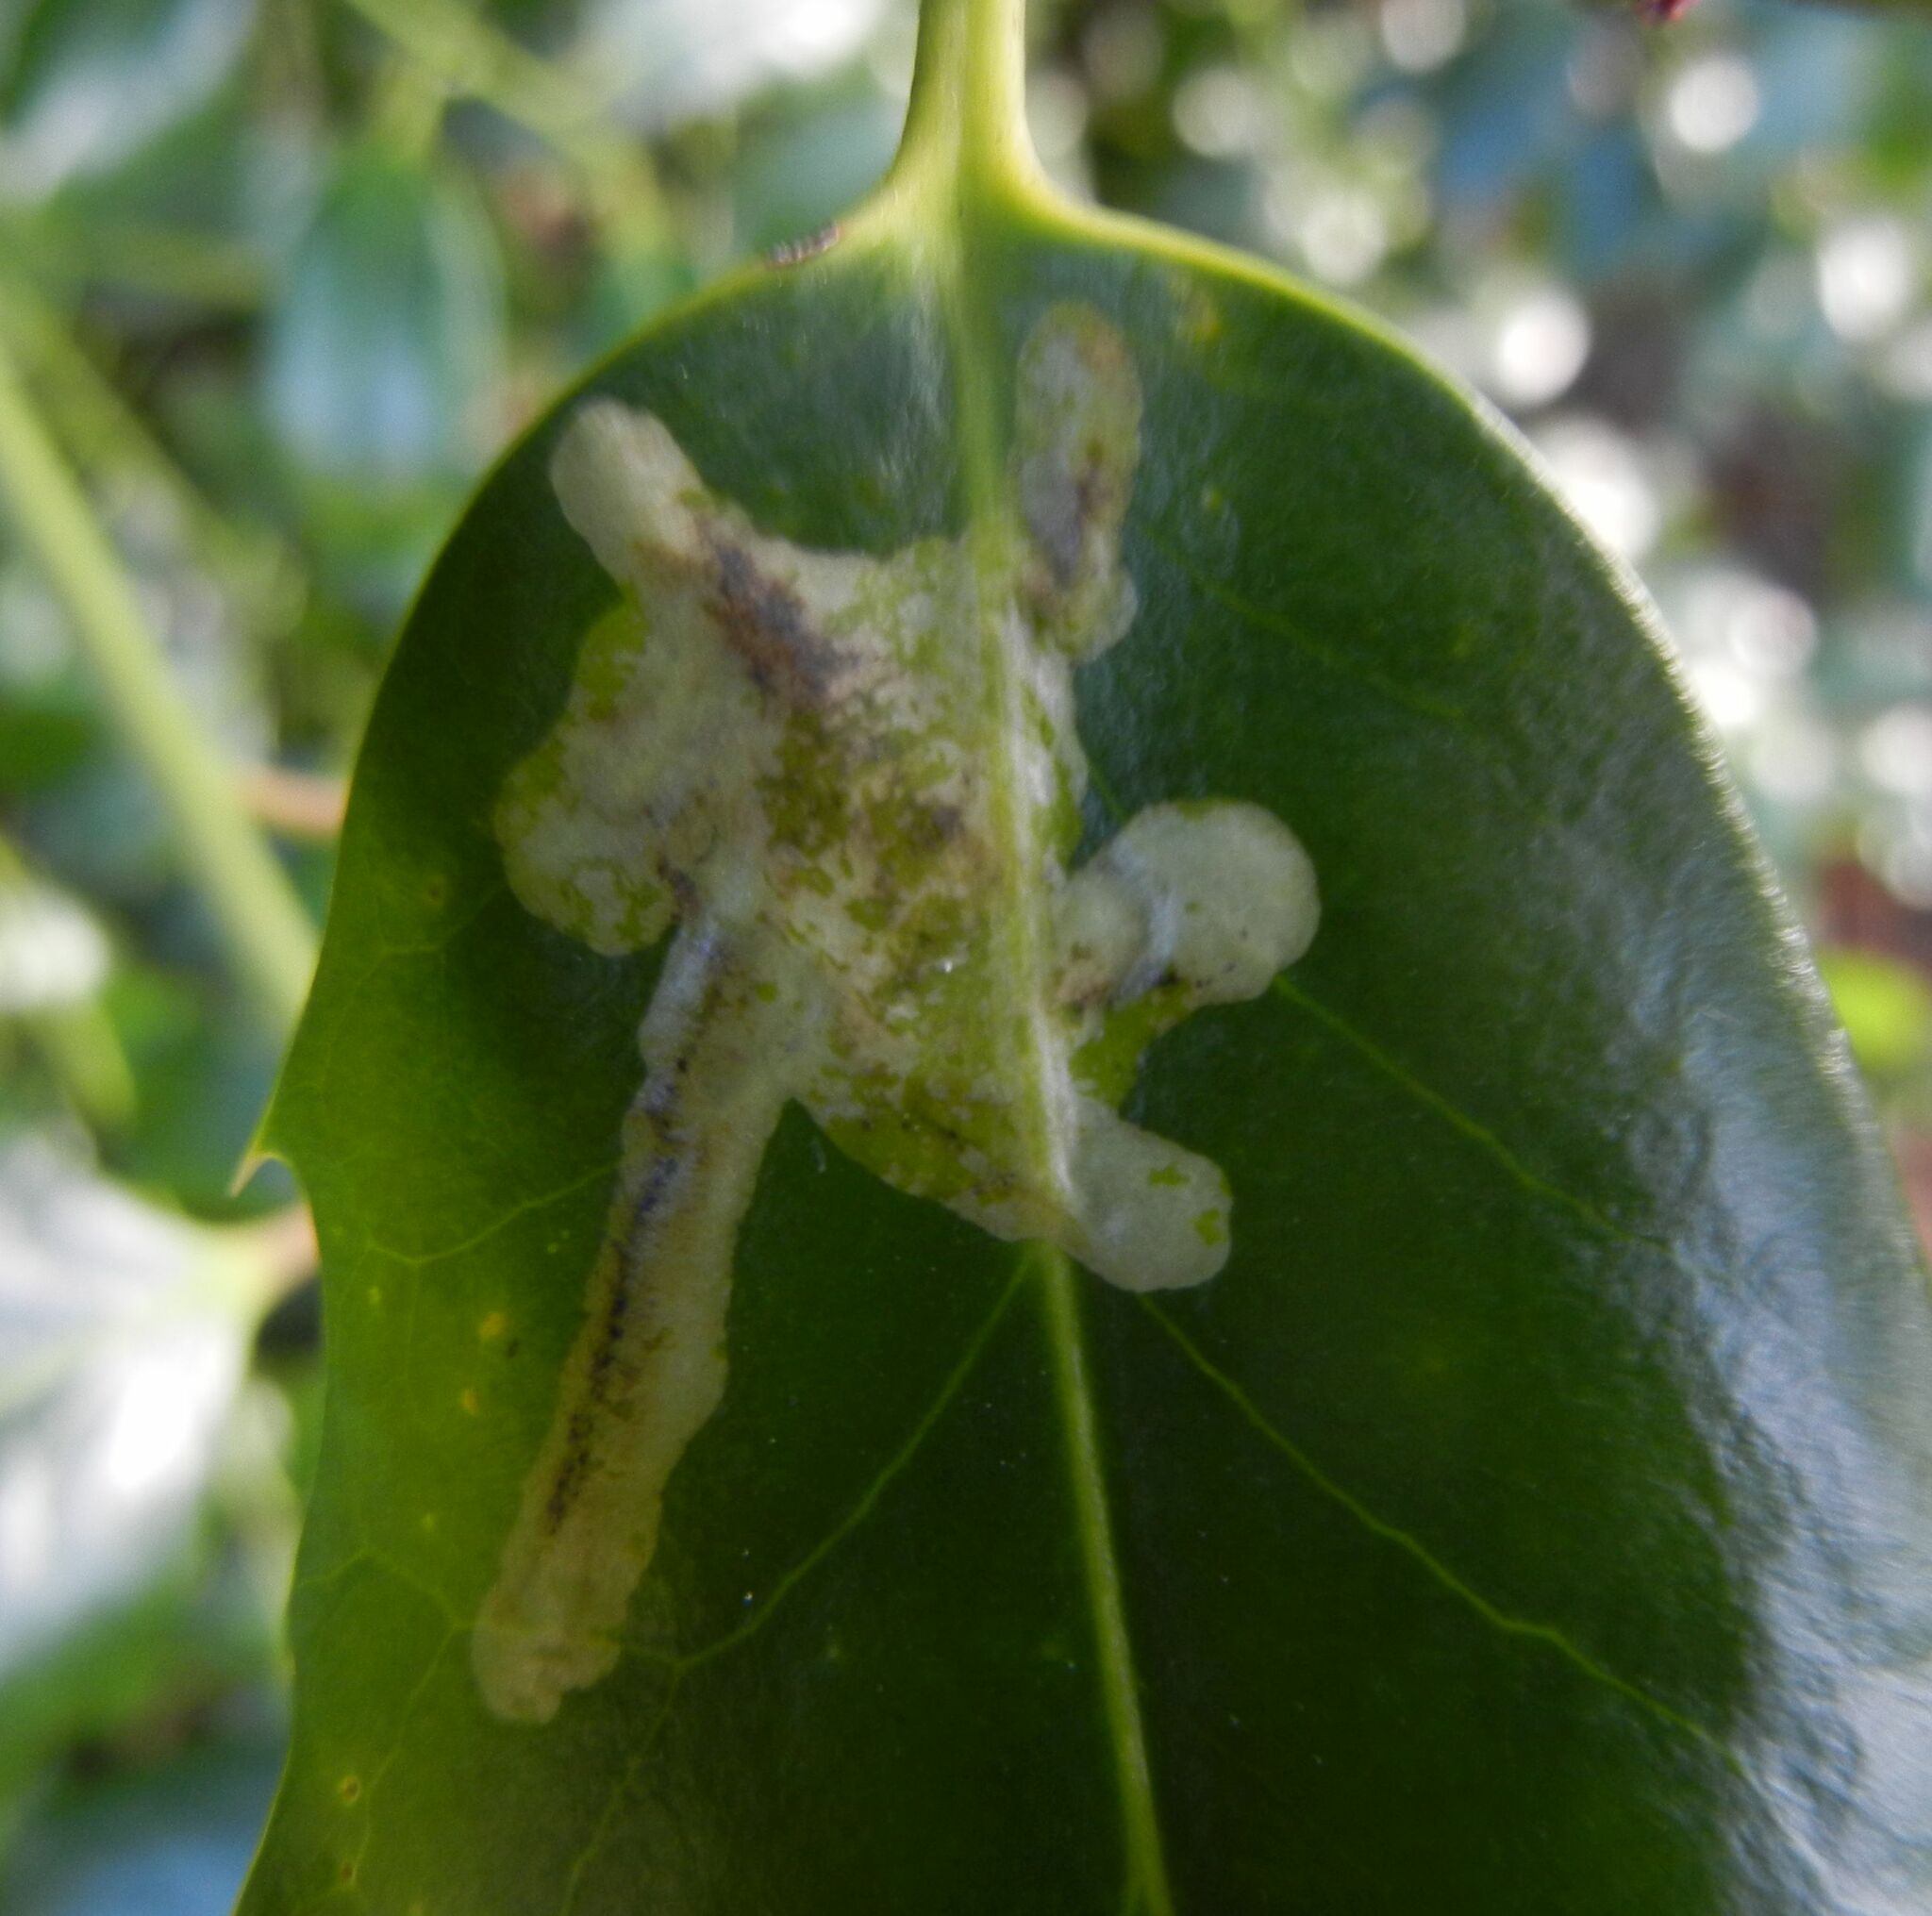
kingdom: Animalia
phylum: Arthropoda
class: Insecta
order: Diptera
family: Agromyzidae
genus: Phytomyza
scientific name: Phytomyza ilicis
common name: Holly leafminer
